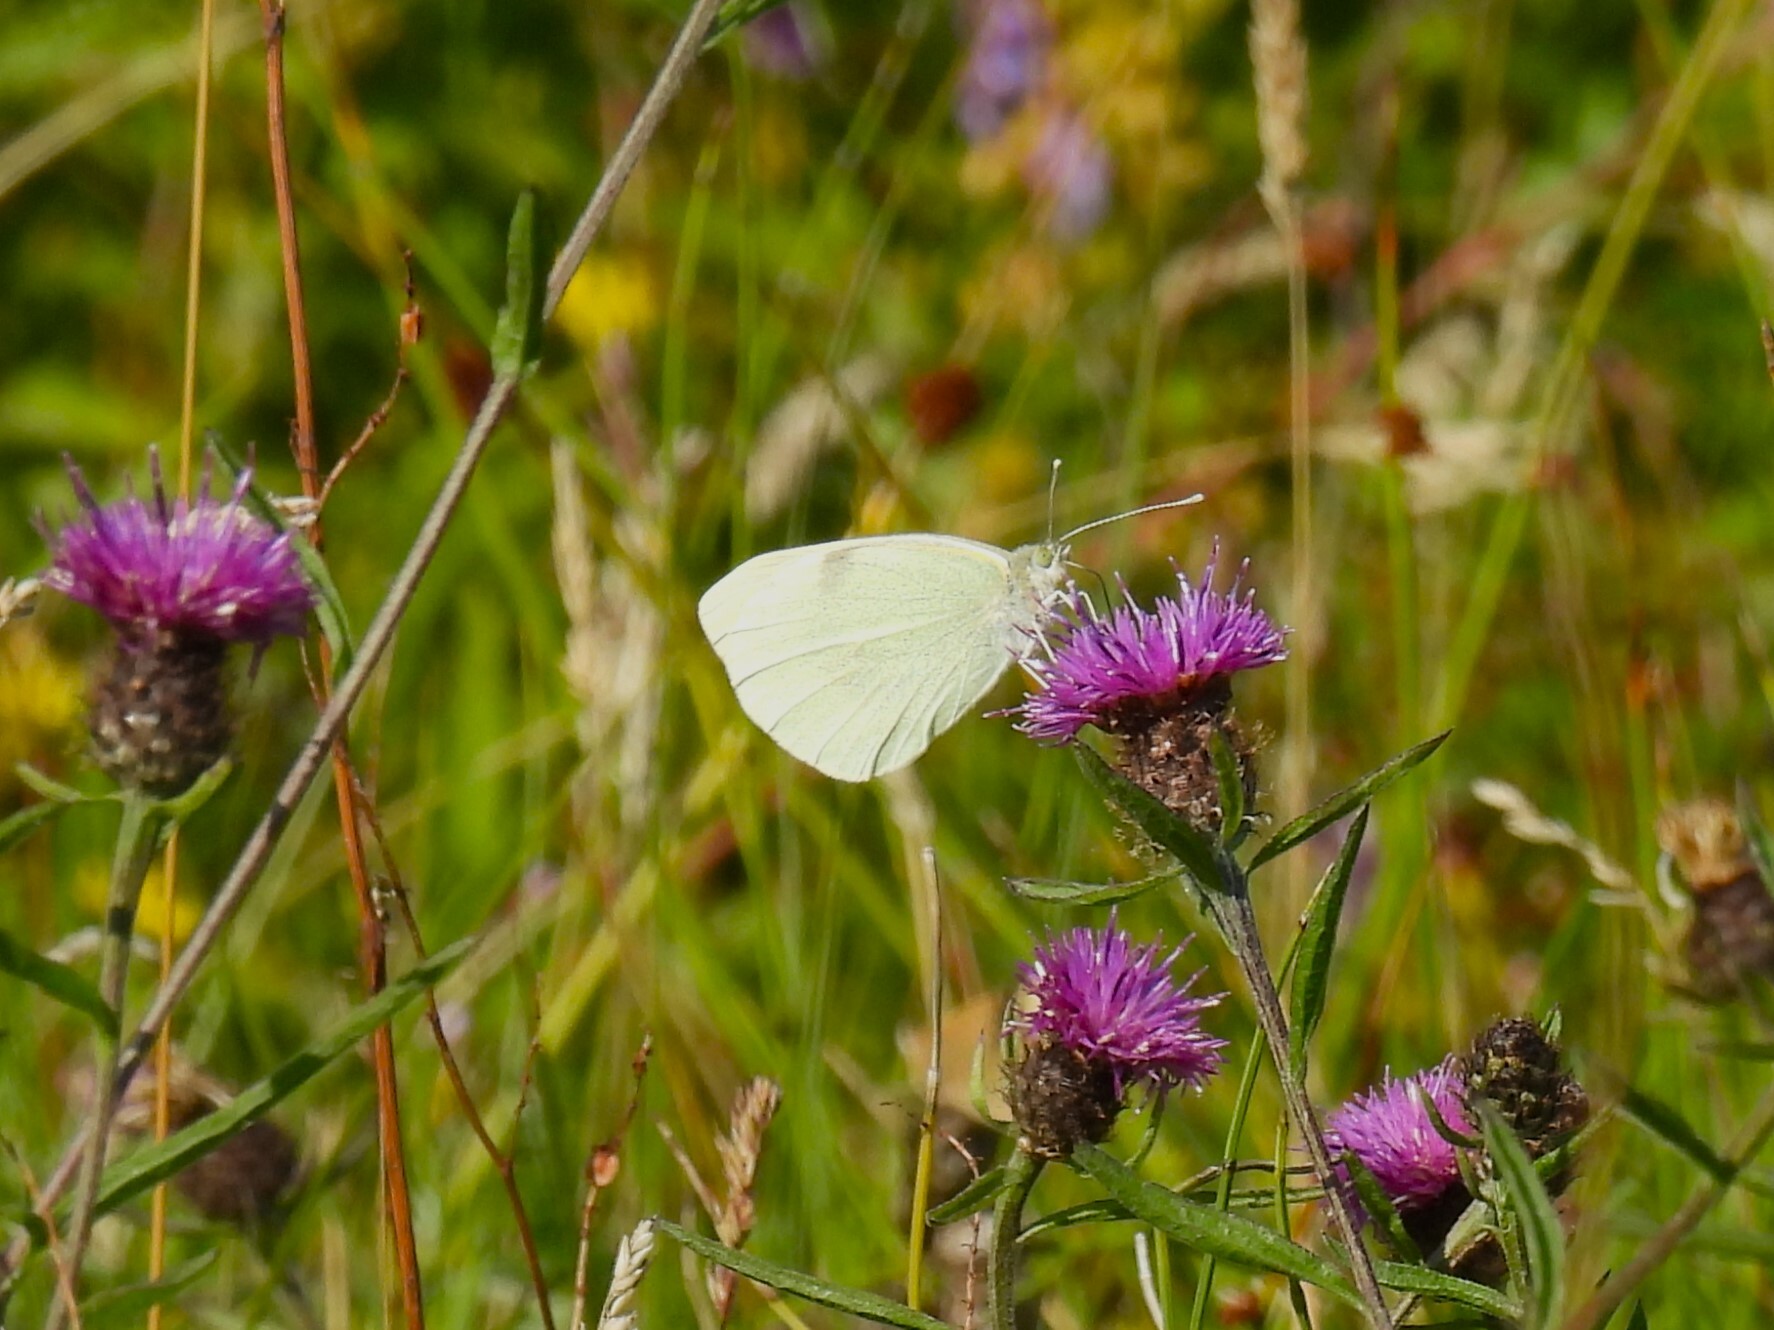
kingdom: Animalia
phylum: Arthropoda
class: Insecta
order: Lepidoptera
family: Pieridae
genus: Pieris
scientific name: Pieris brassicae
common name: Large white
